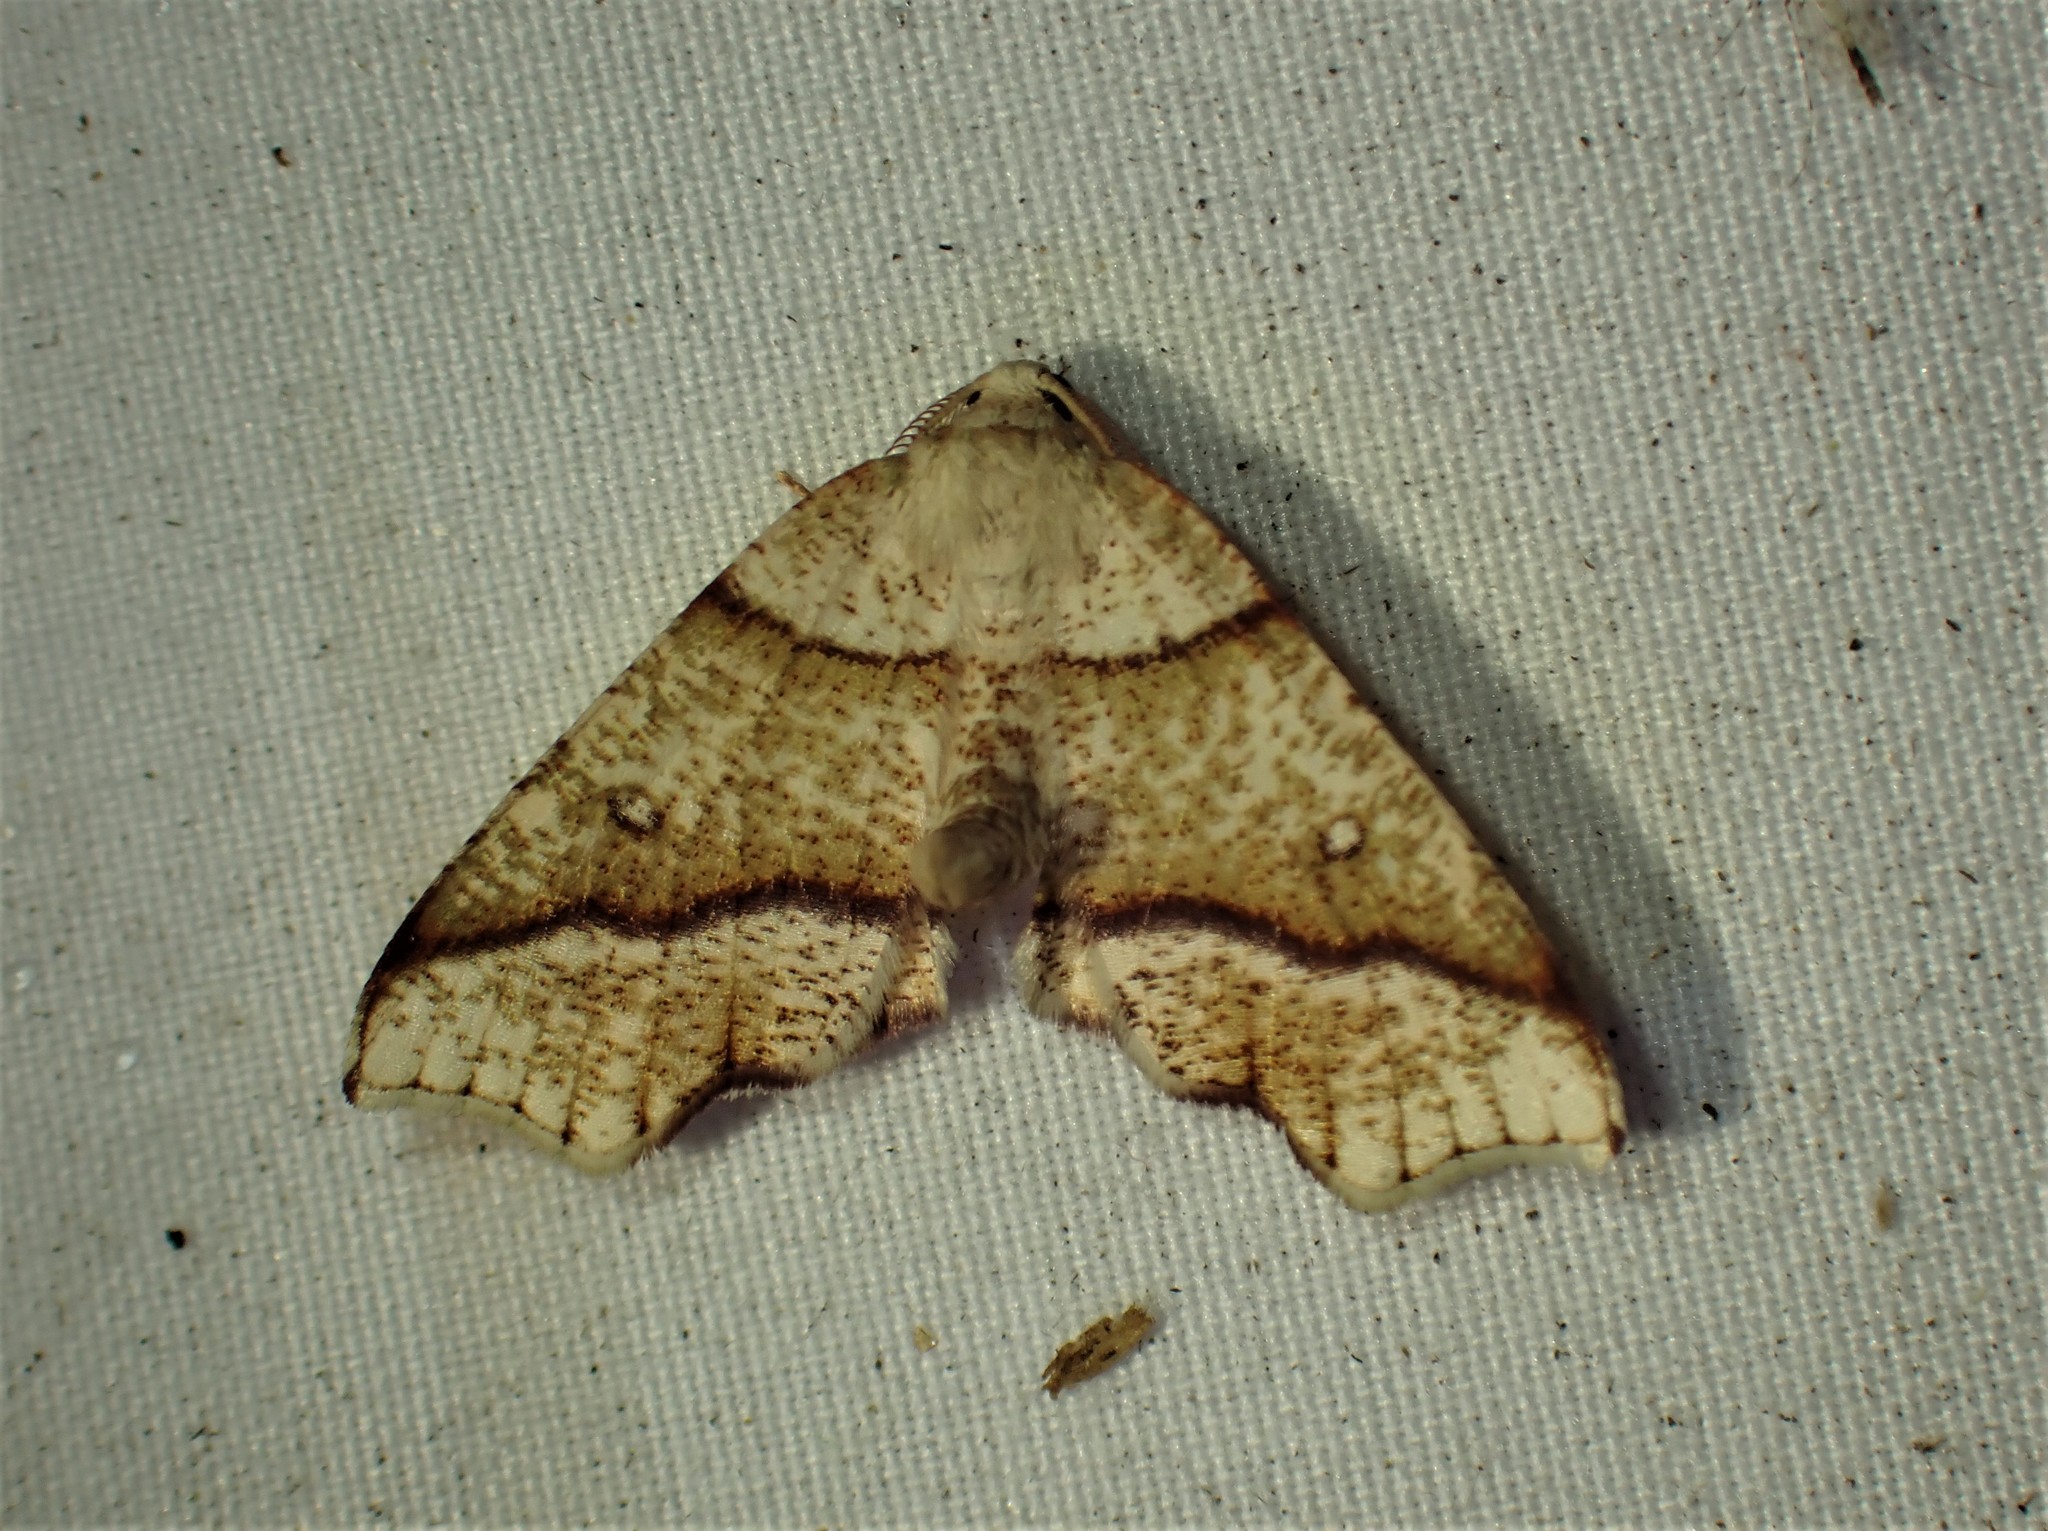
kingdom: Animalia
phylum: Arthropoda
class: Insecta
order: Lepidoptera
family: Geometridae
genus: Plagodis
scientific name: Plagodis alcoolaria
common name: Hollow-spotted plagodis
